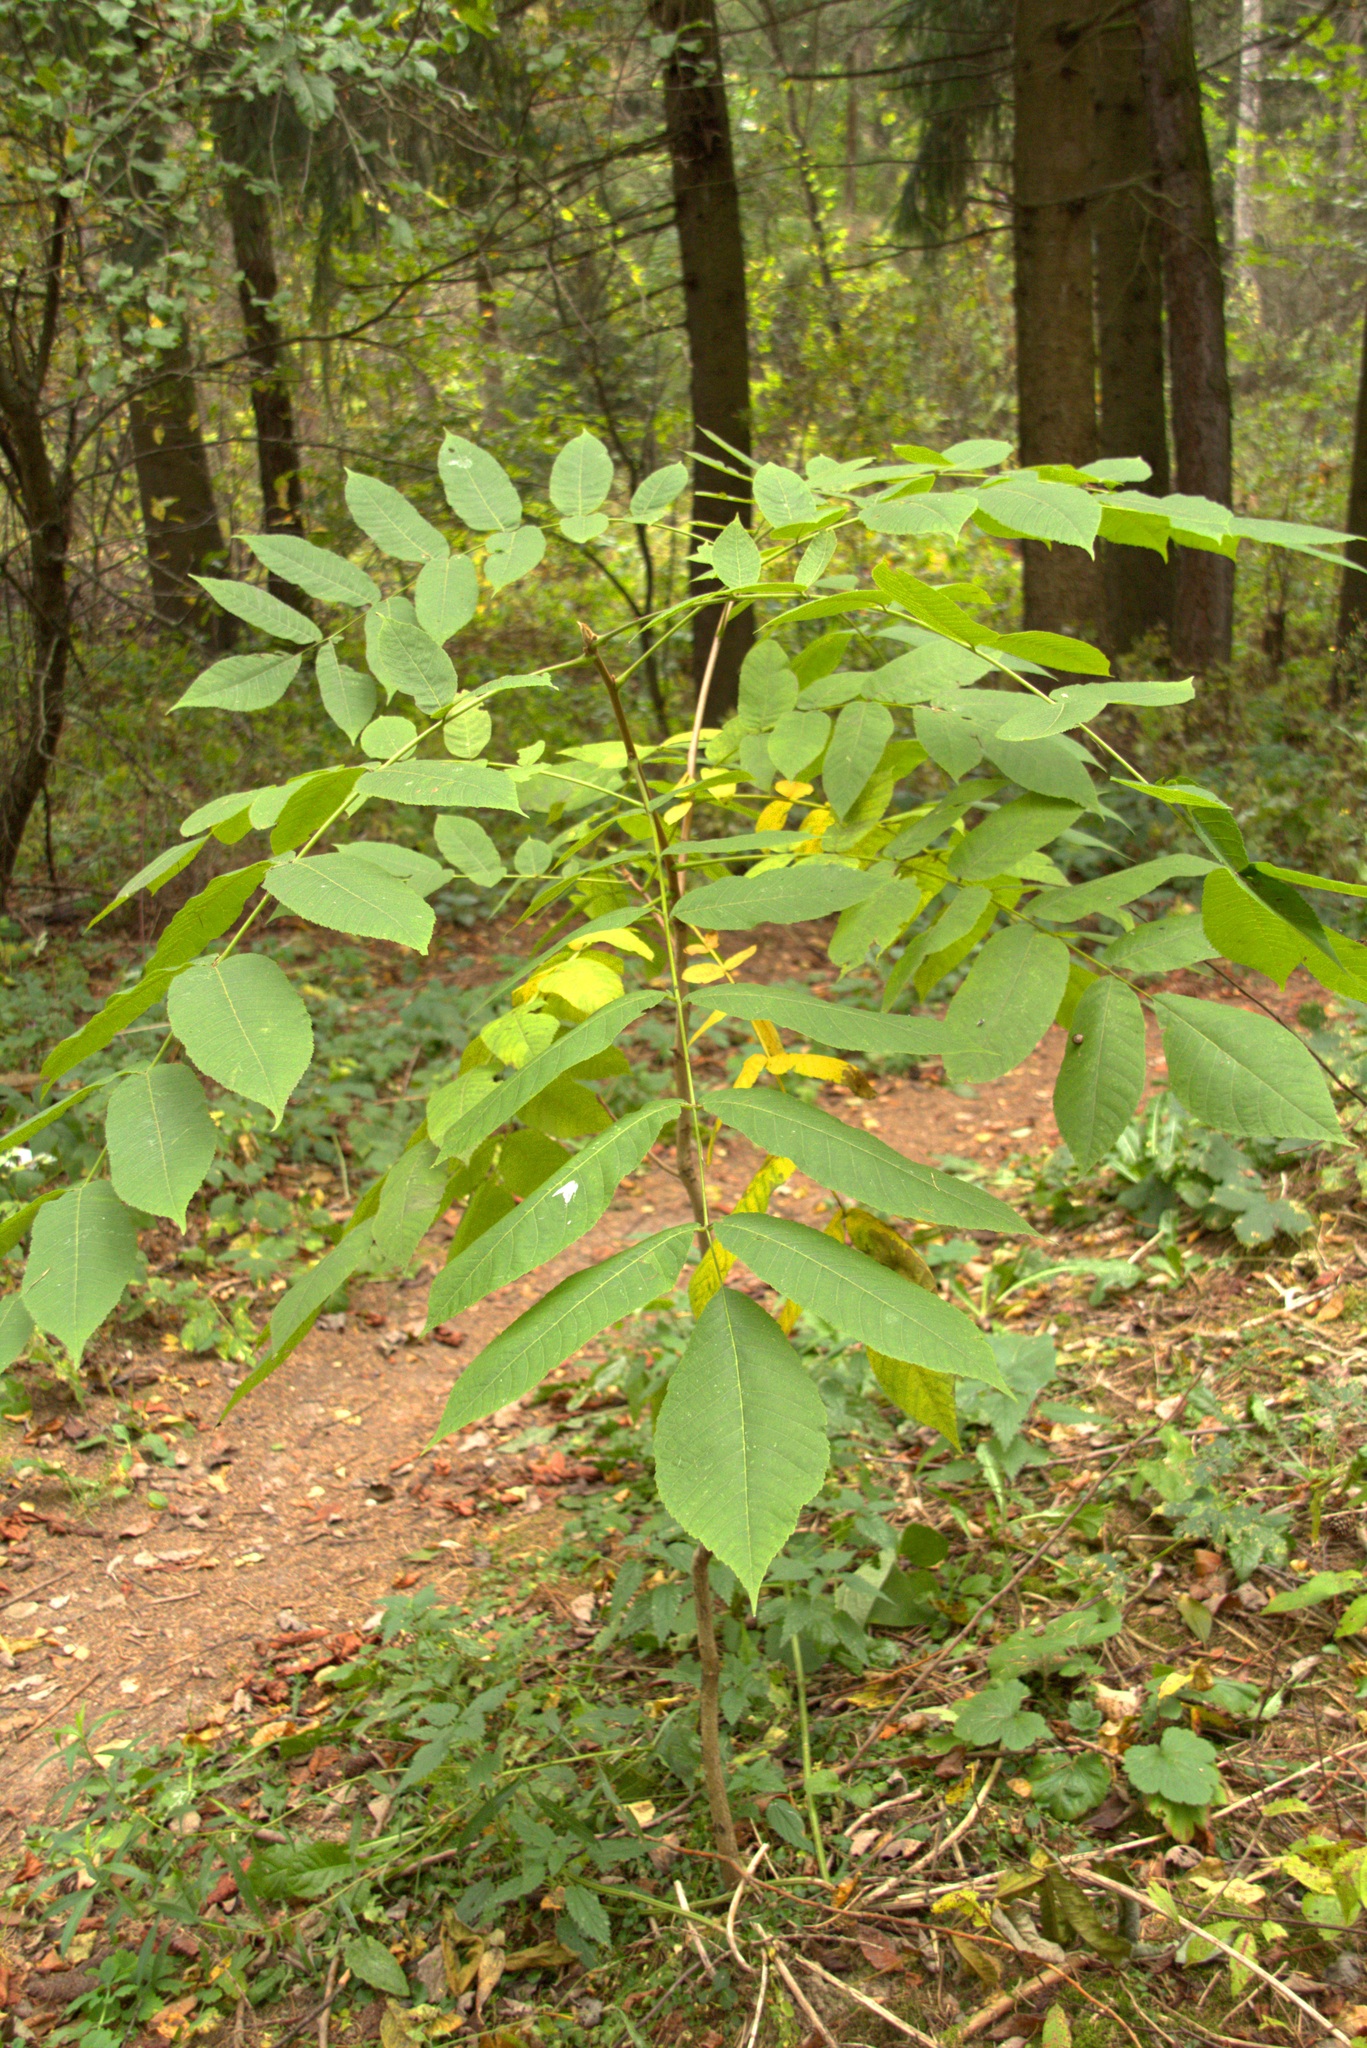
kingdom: Plantae
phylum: Tracheophyta
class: Magnoliopsida
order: Fagales
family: Juglandaceae
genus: Juglans
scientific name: Juglans mandshurica
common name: Manchurian walnut
